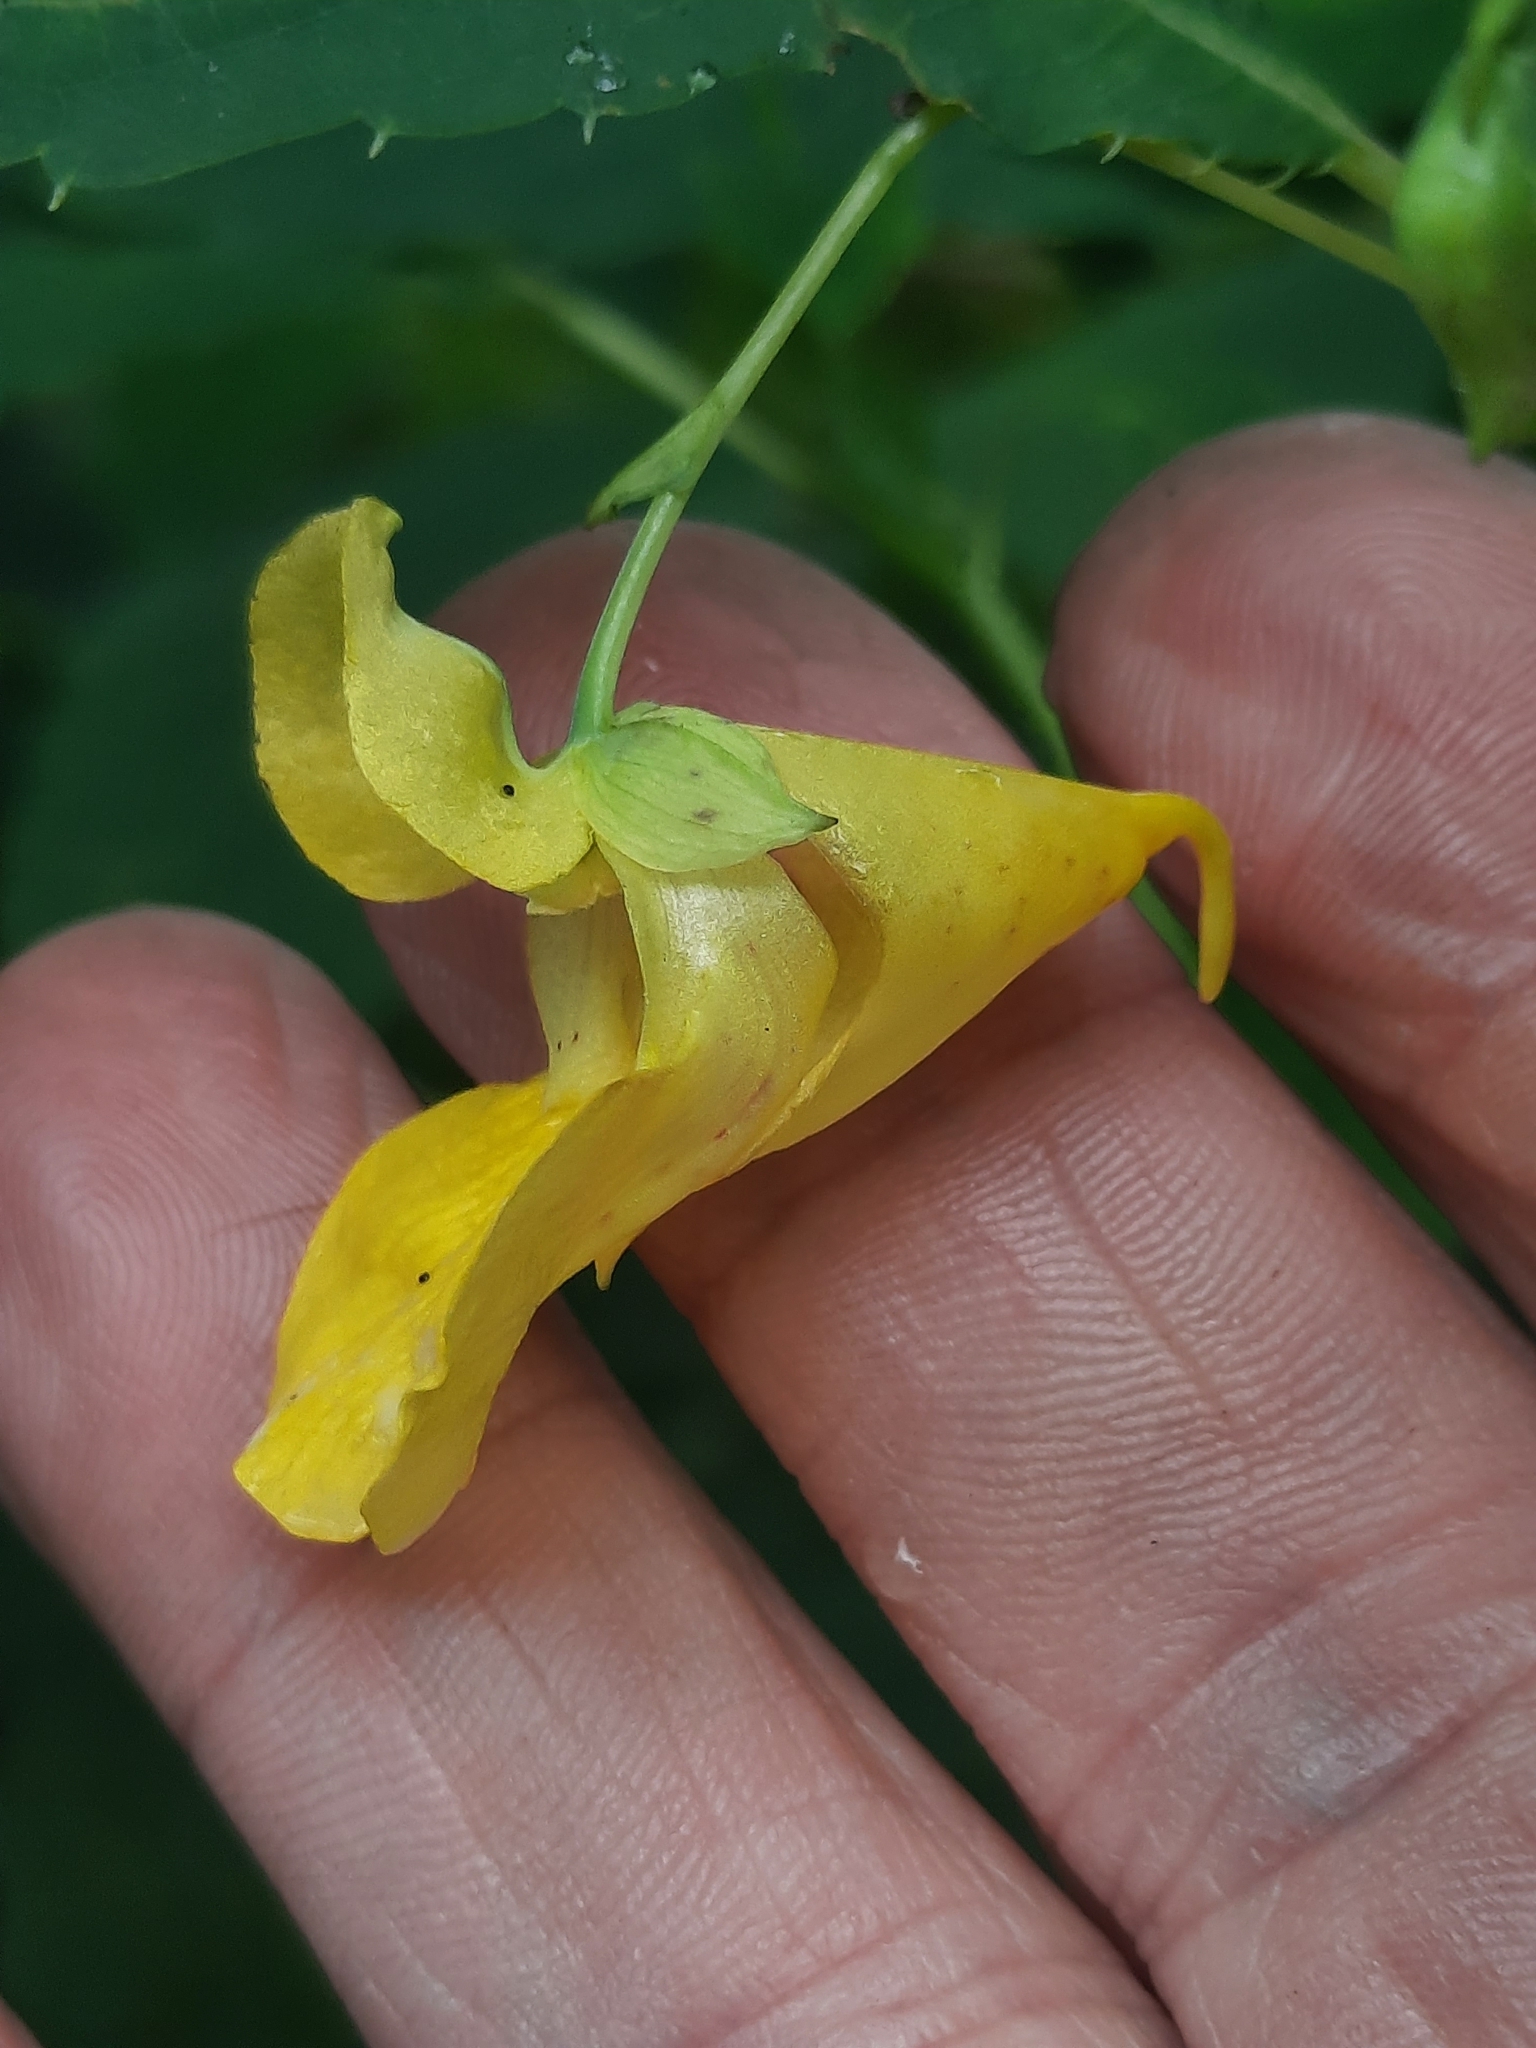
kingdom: Plantae
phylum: Tracheophyta
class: Magnoliopsida
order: Ericales
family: Balsaminaceae
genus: Impatiens
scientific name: Impatiens pallida
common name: Pale snapweed
